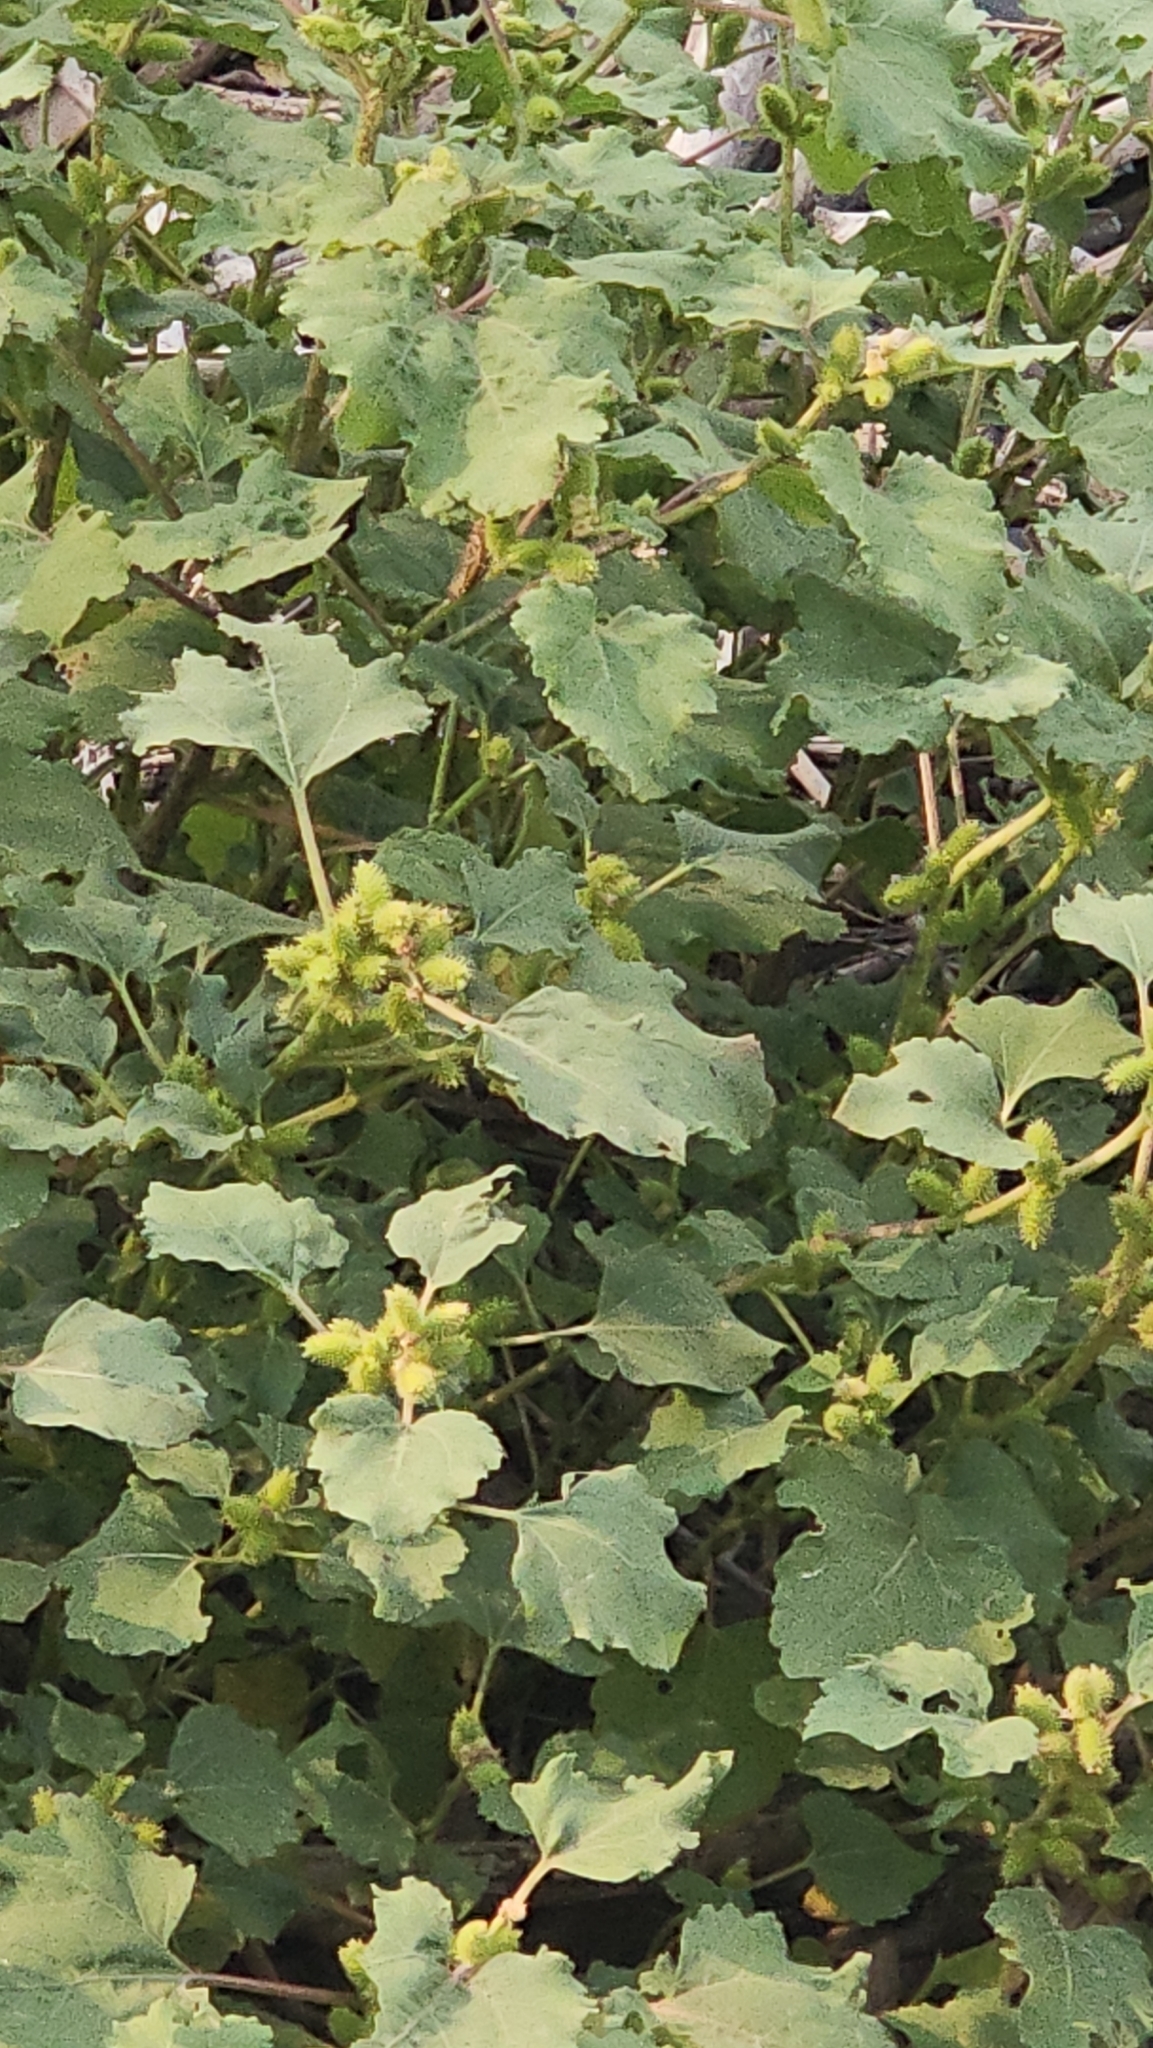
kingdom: Plantae
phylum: Tracheophyta
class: Magnoliopsida
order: Asterales
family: Asteraceae
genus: Xanthium
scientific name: Xanthium strumarium
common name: Rough cocklebur
